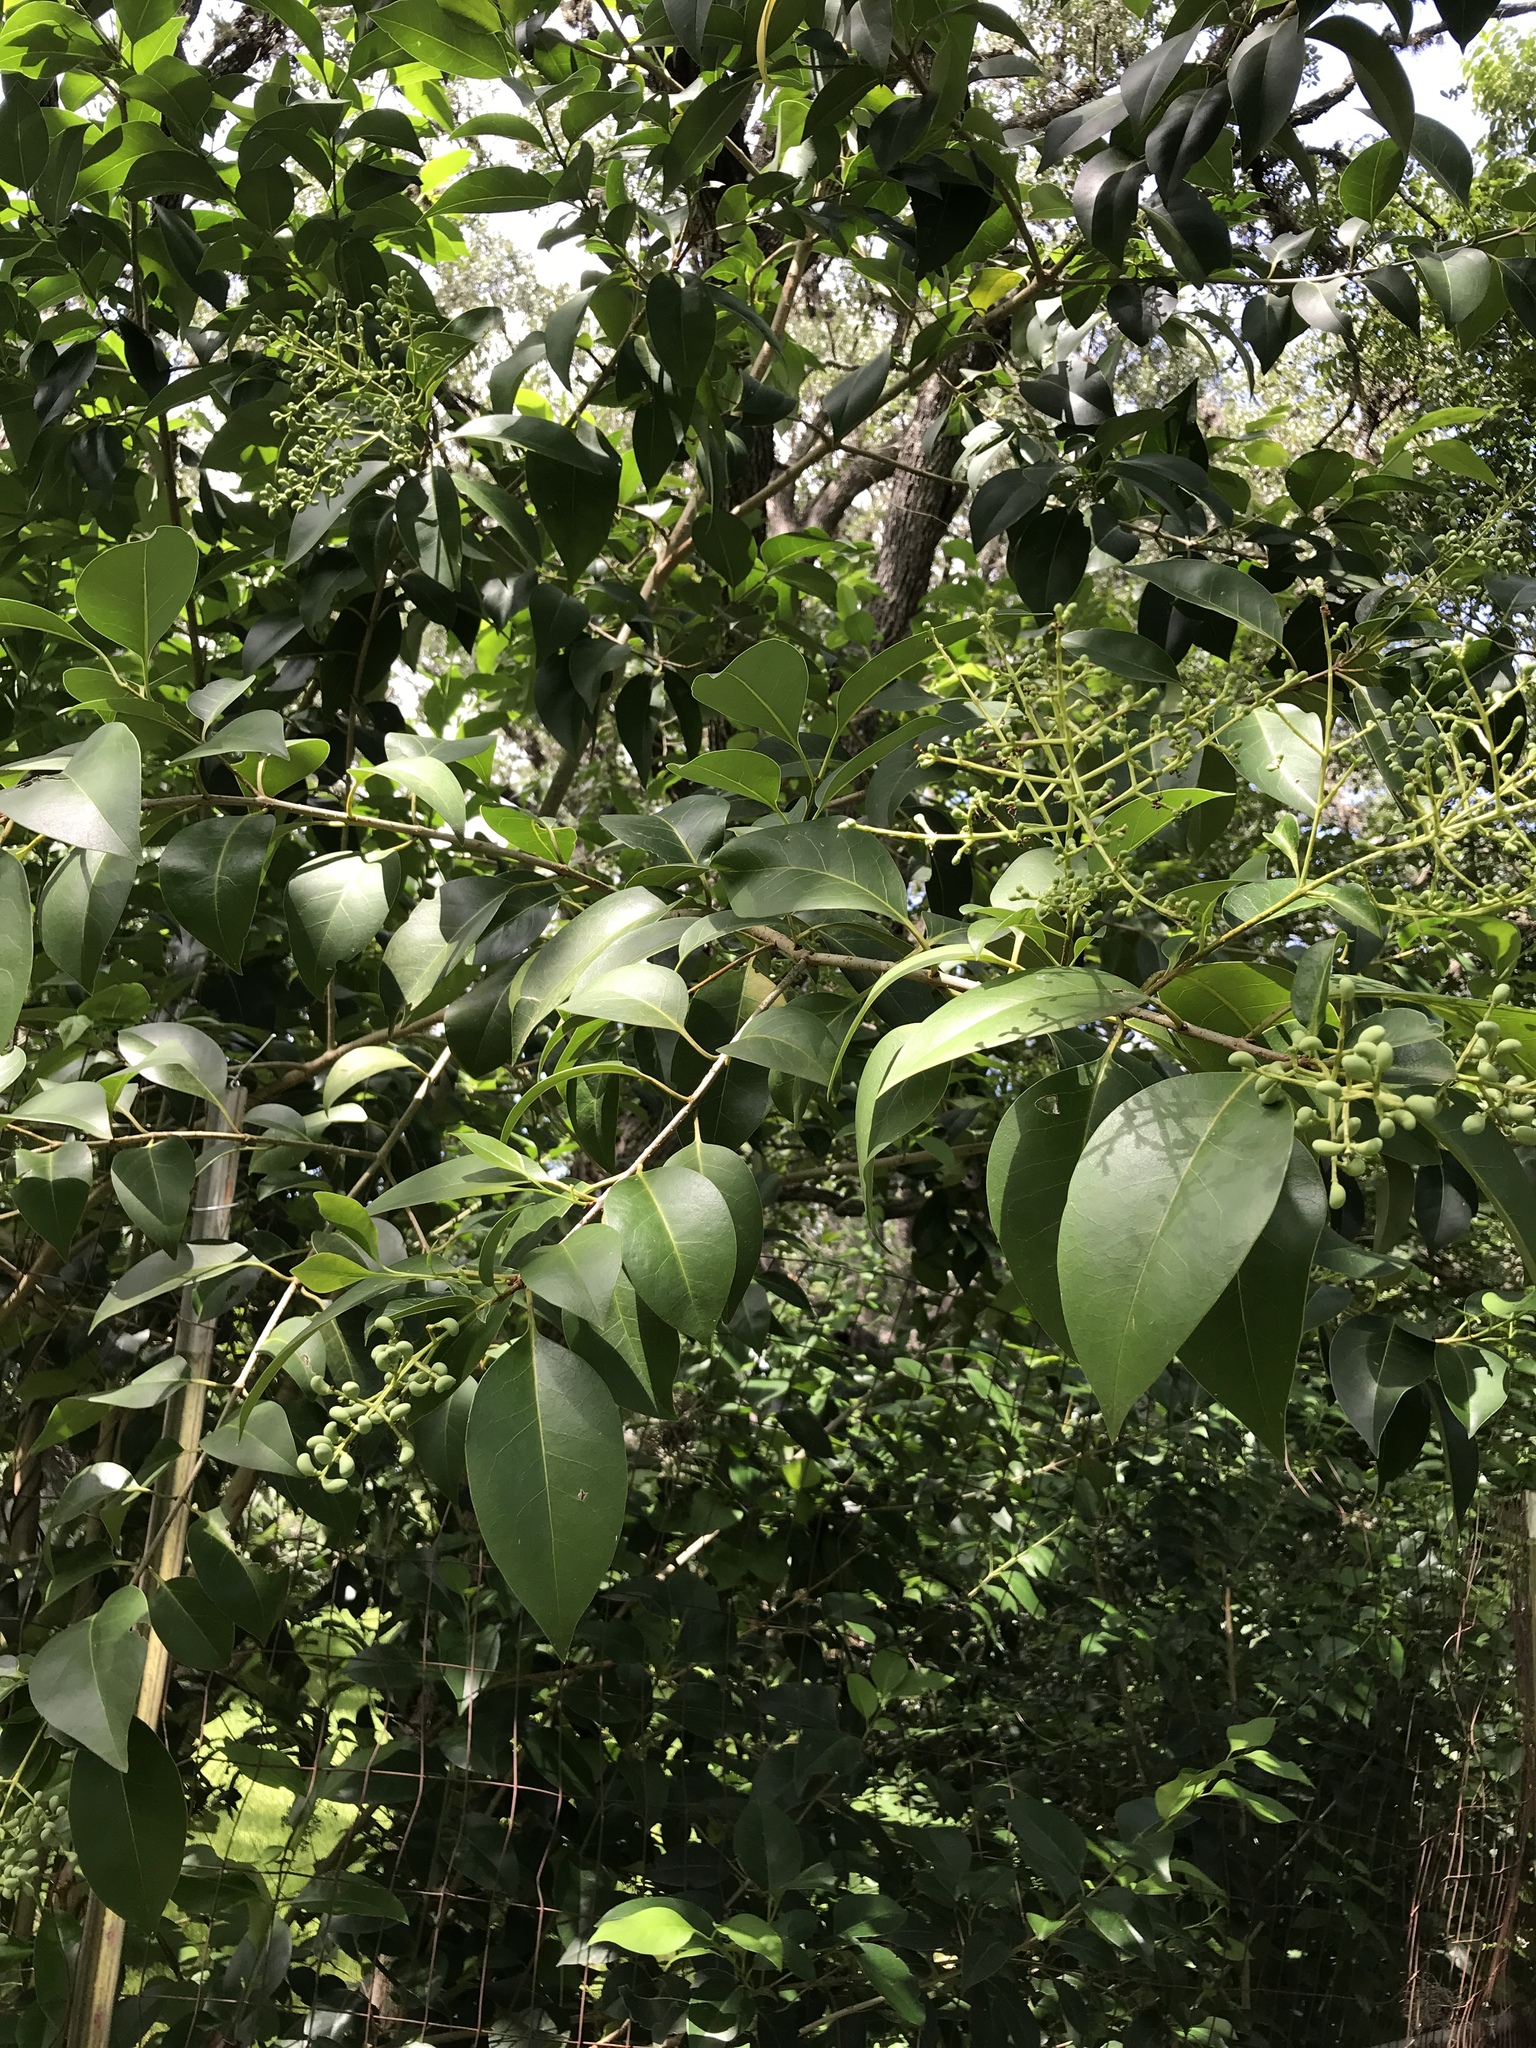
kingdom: Plantae
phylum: Tracheophyta
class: Magnoliopsida
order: Lamiales
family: Oleaceae
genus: Ligustrum
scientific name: Ligustrum lucidum
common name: Glossy privet
